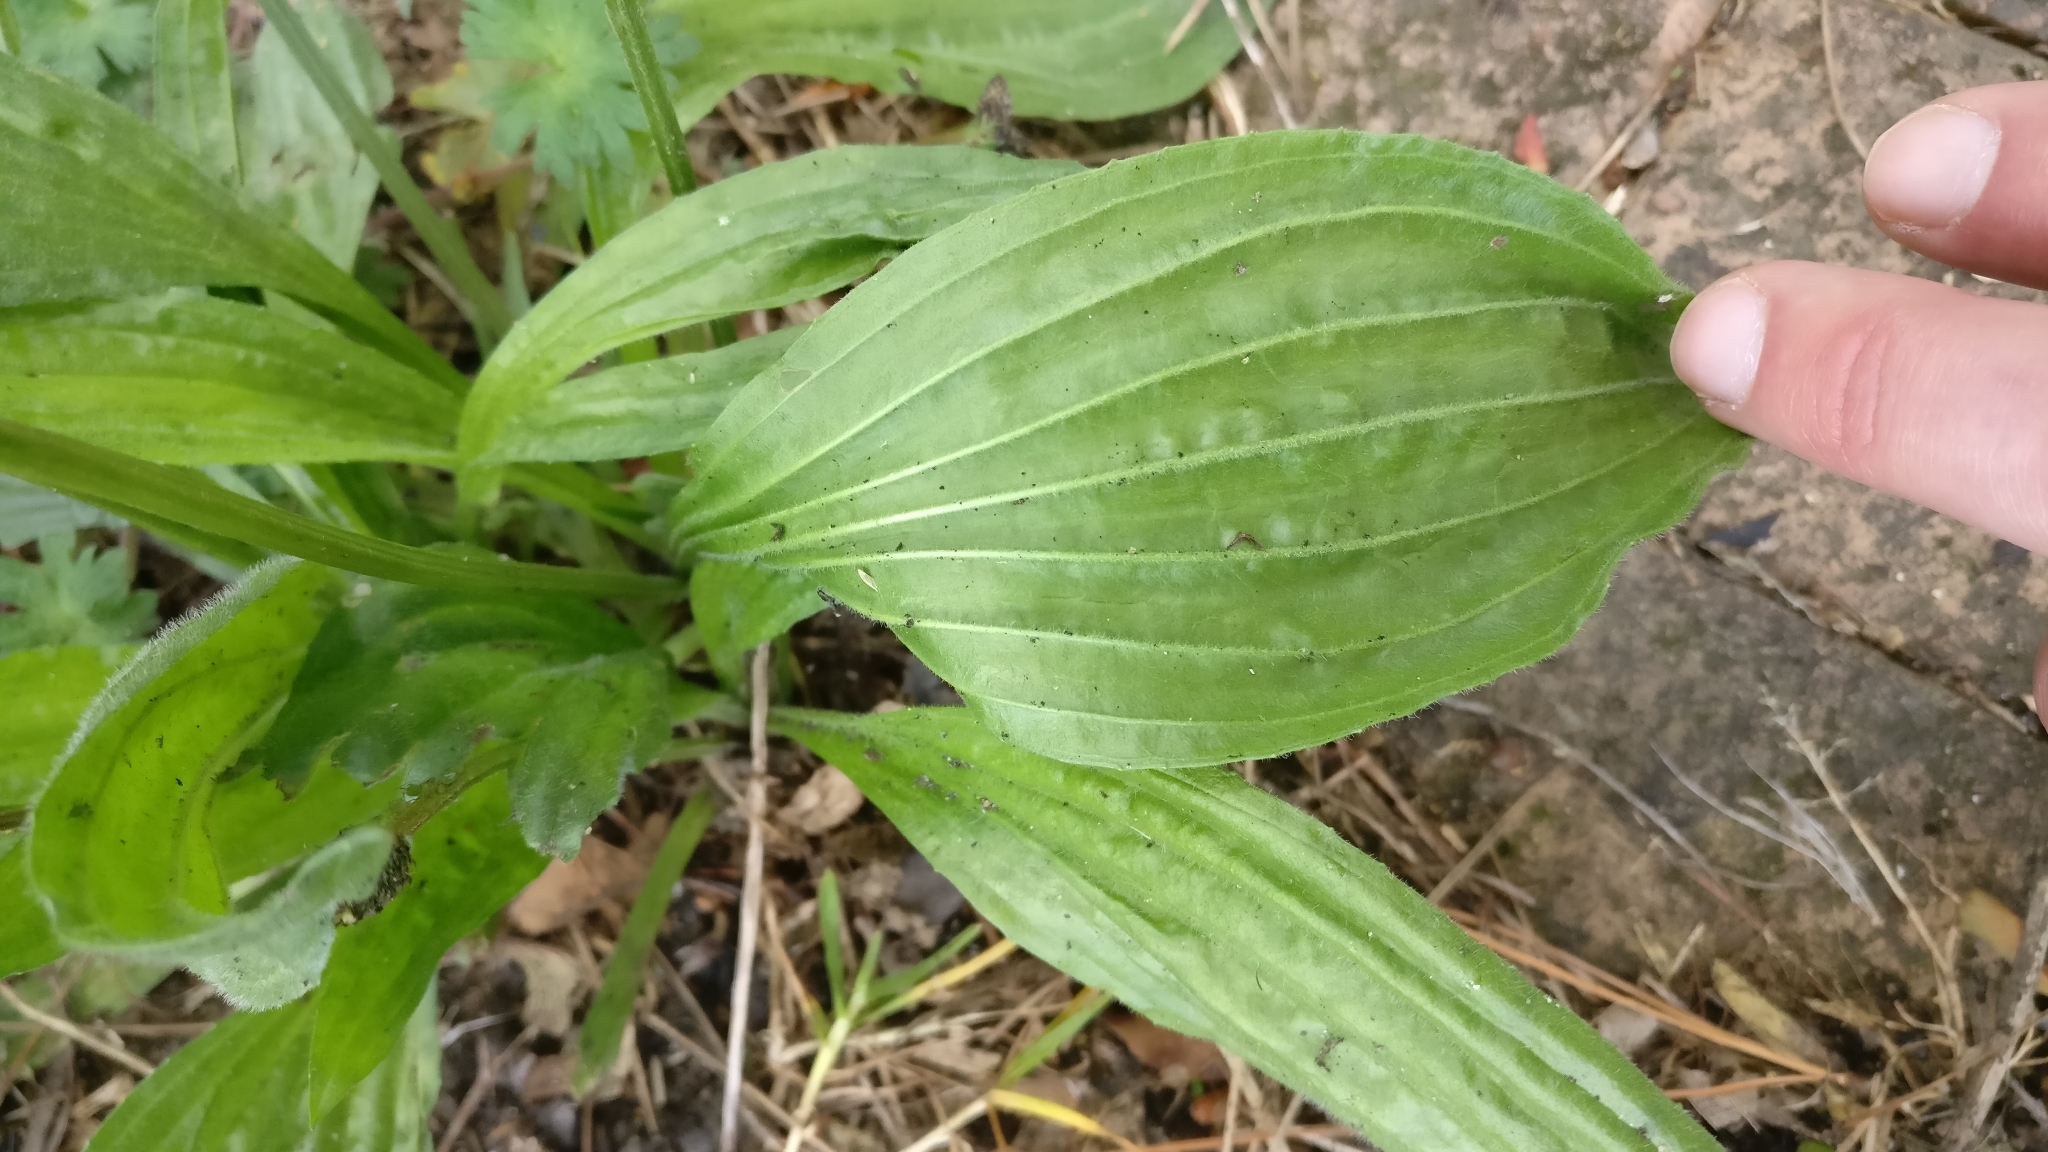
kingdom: Plantae
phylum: Tracheophyta
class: Magnoliopsida
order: Lamiales
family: Plantaginaceae
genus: Plantago
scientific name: Plantago lanceolata
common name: Ribwort plantain
